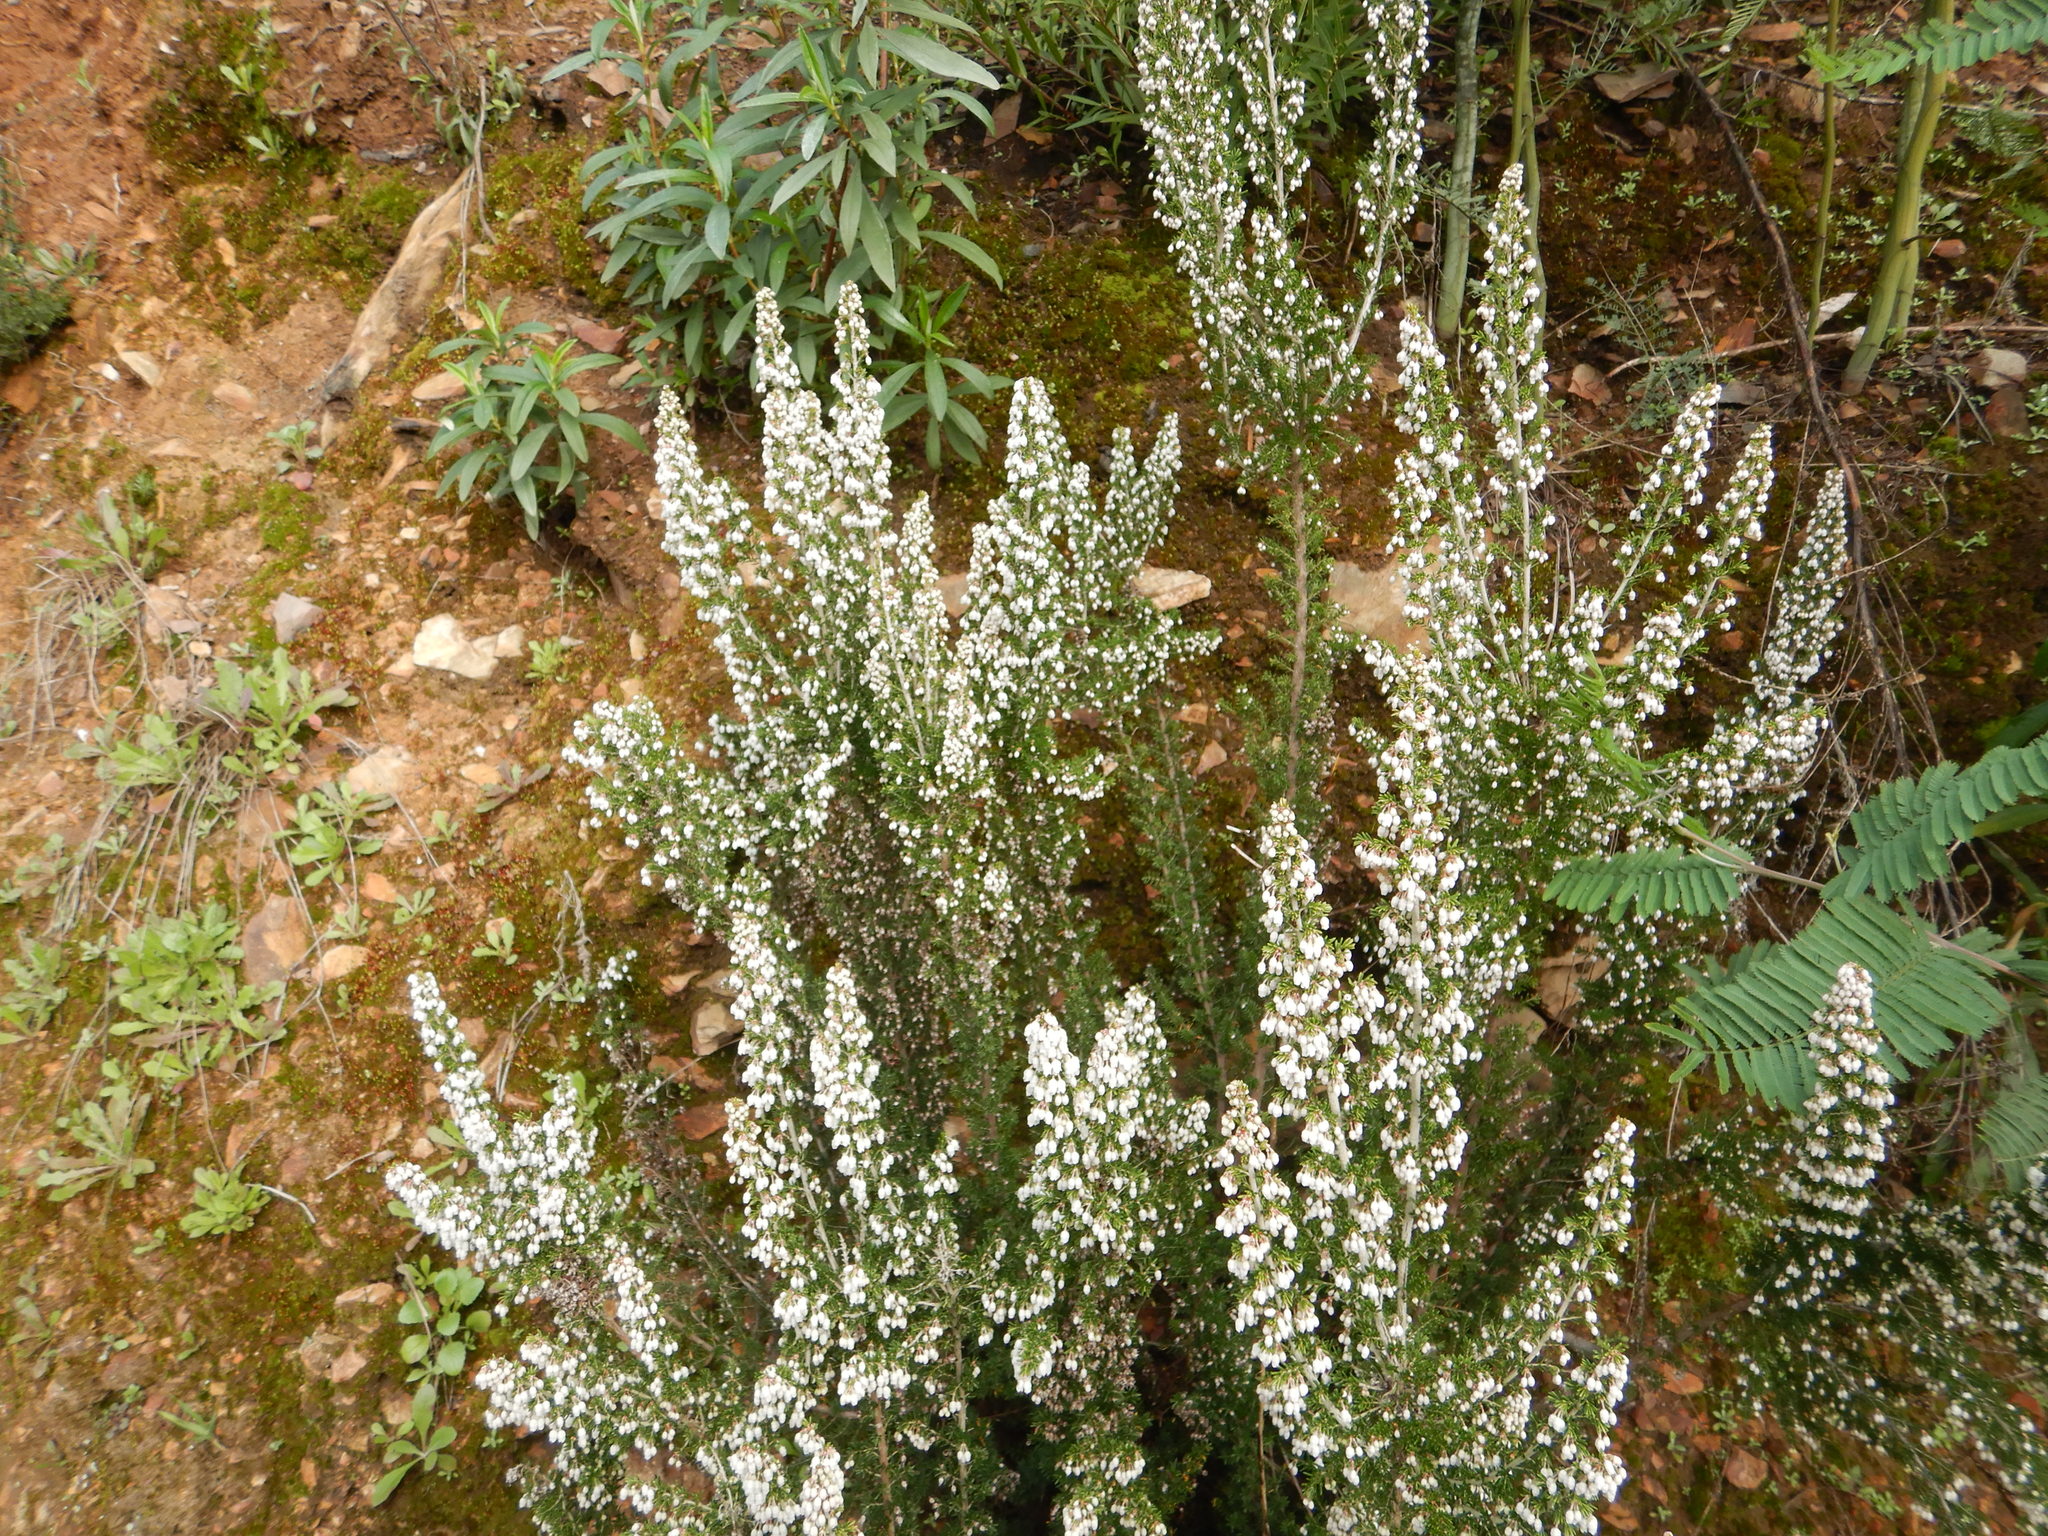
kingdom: Plantae
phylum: Tracheophyta
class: Magnoliopsida
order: Ericales
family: Ericaceae
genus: Erica
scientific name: Erica arborea
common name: Tree heath
